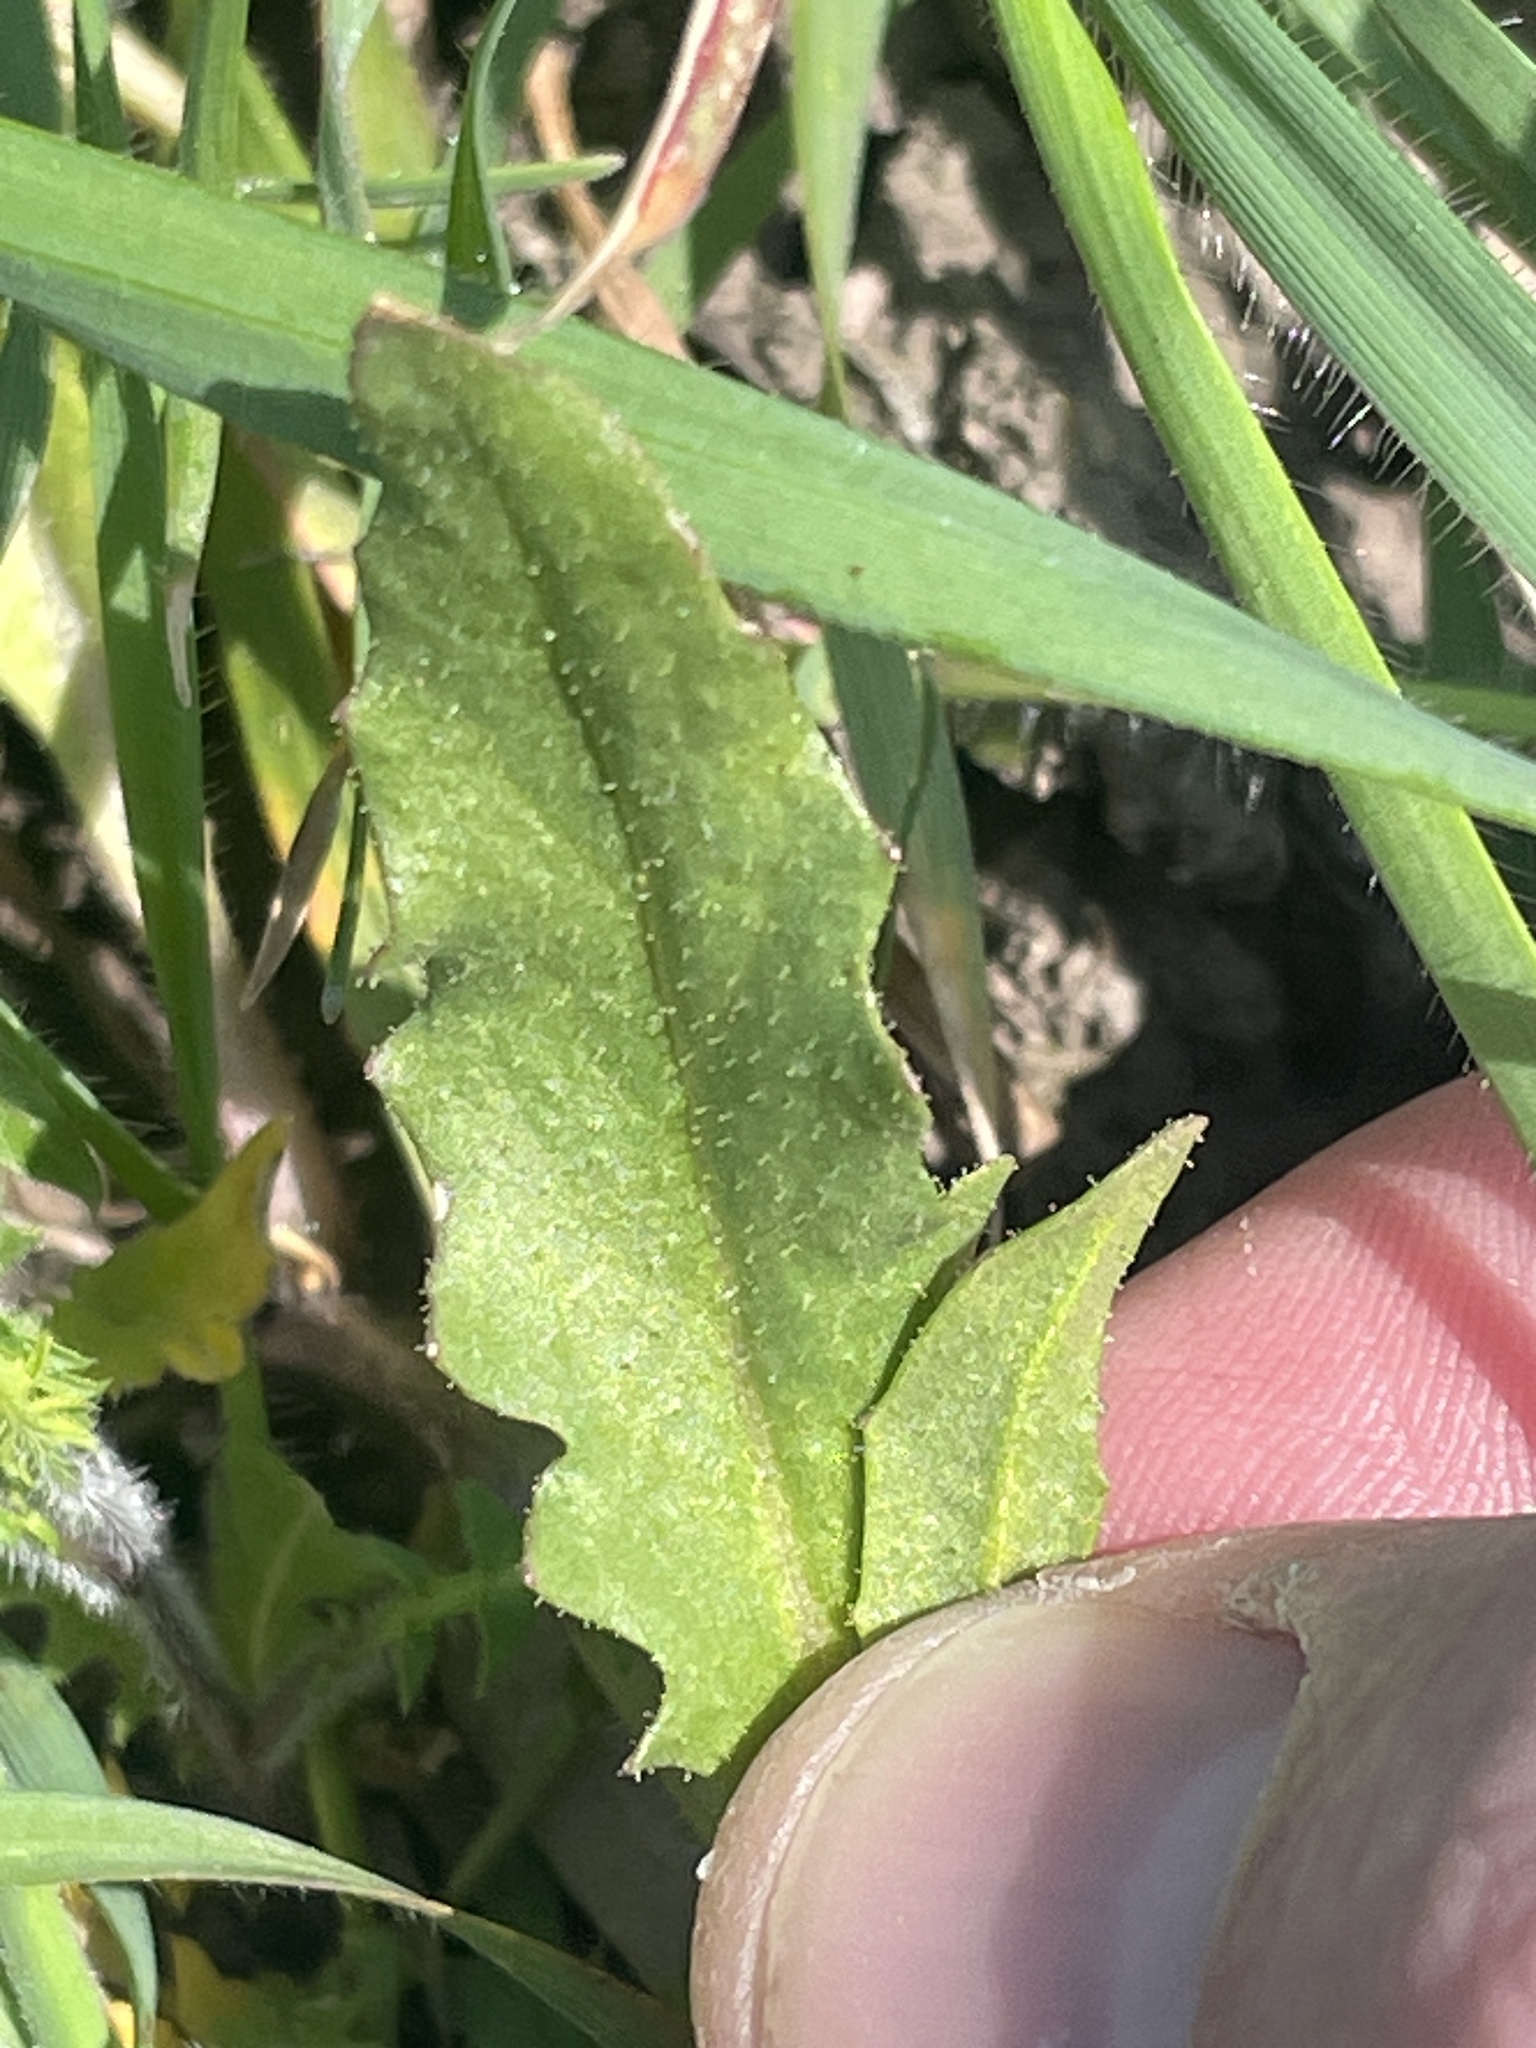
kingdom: Plantae
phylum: Tracheophyta
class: Magnoliopsida
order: Brassicales
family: Brassicaceae
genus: Chorispora
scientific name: Chorispora tenella
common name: Crossflower
